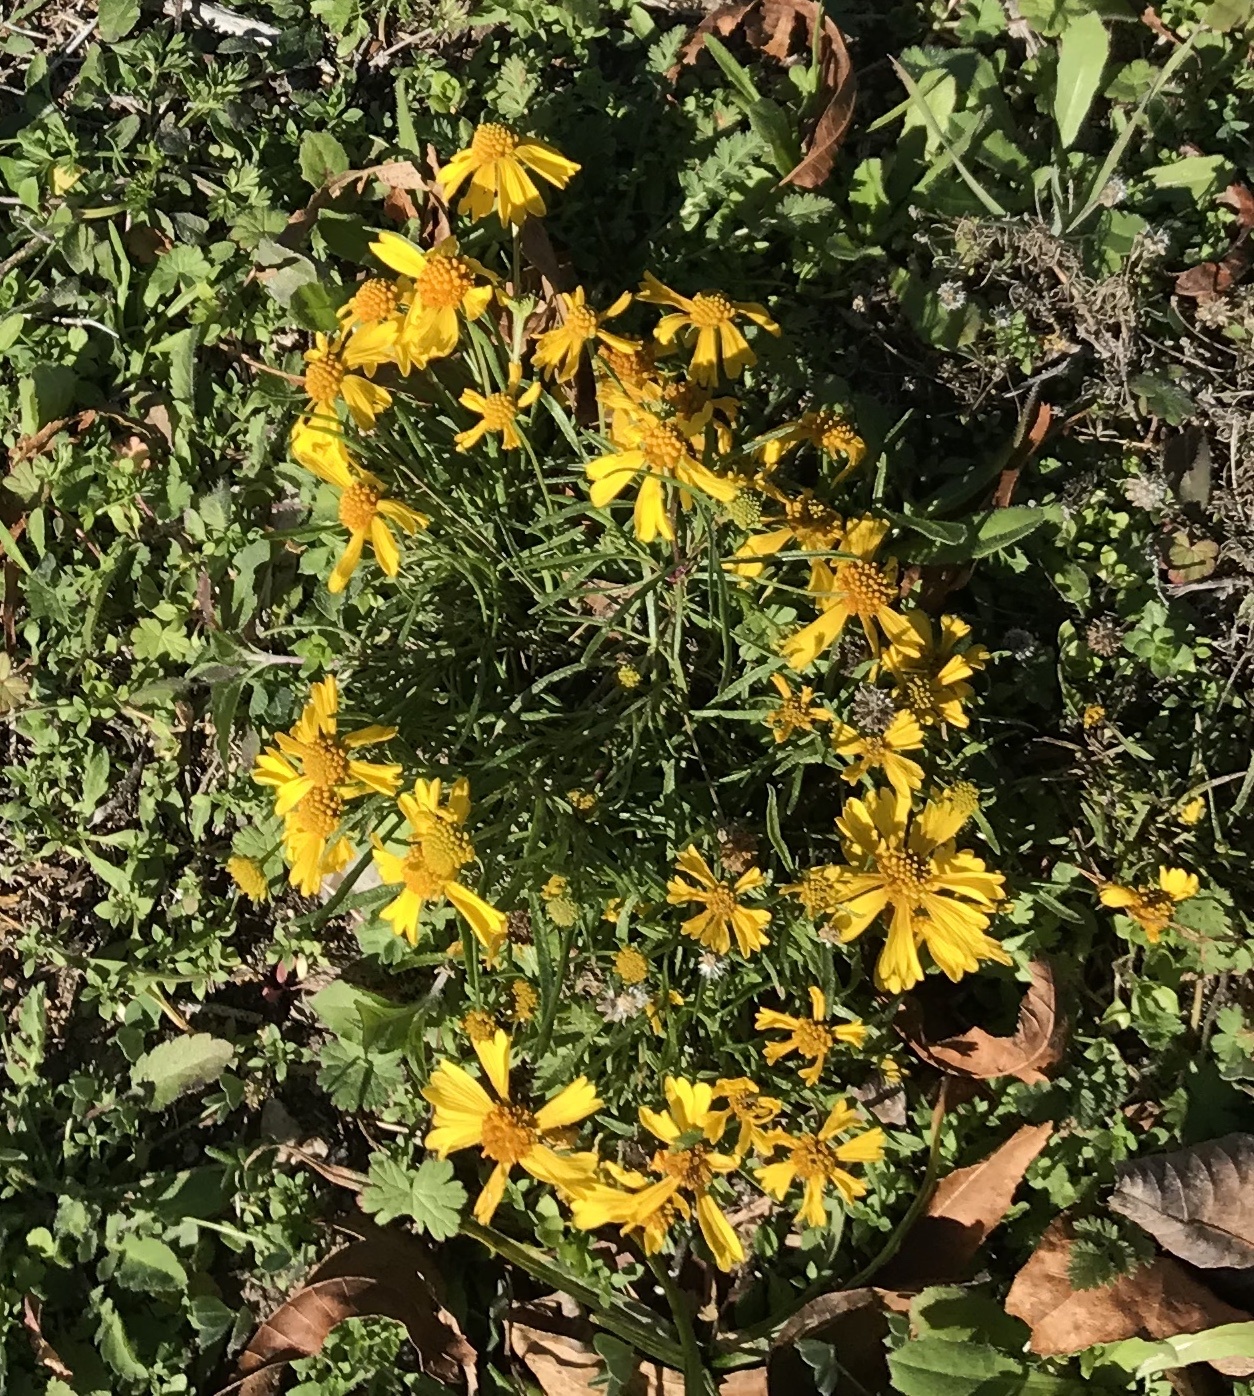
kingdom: Plantae
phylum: Tracheophyta
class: Magnoliopsida
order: Asterales
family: Asteraceae
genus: Helenium
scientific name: Helenium amarum
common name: Bitter sneezeweed
